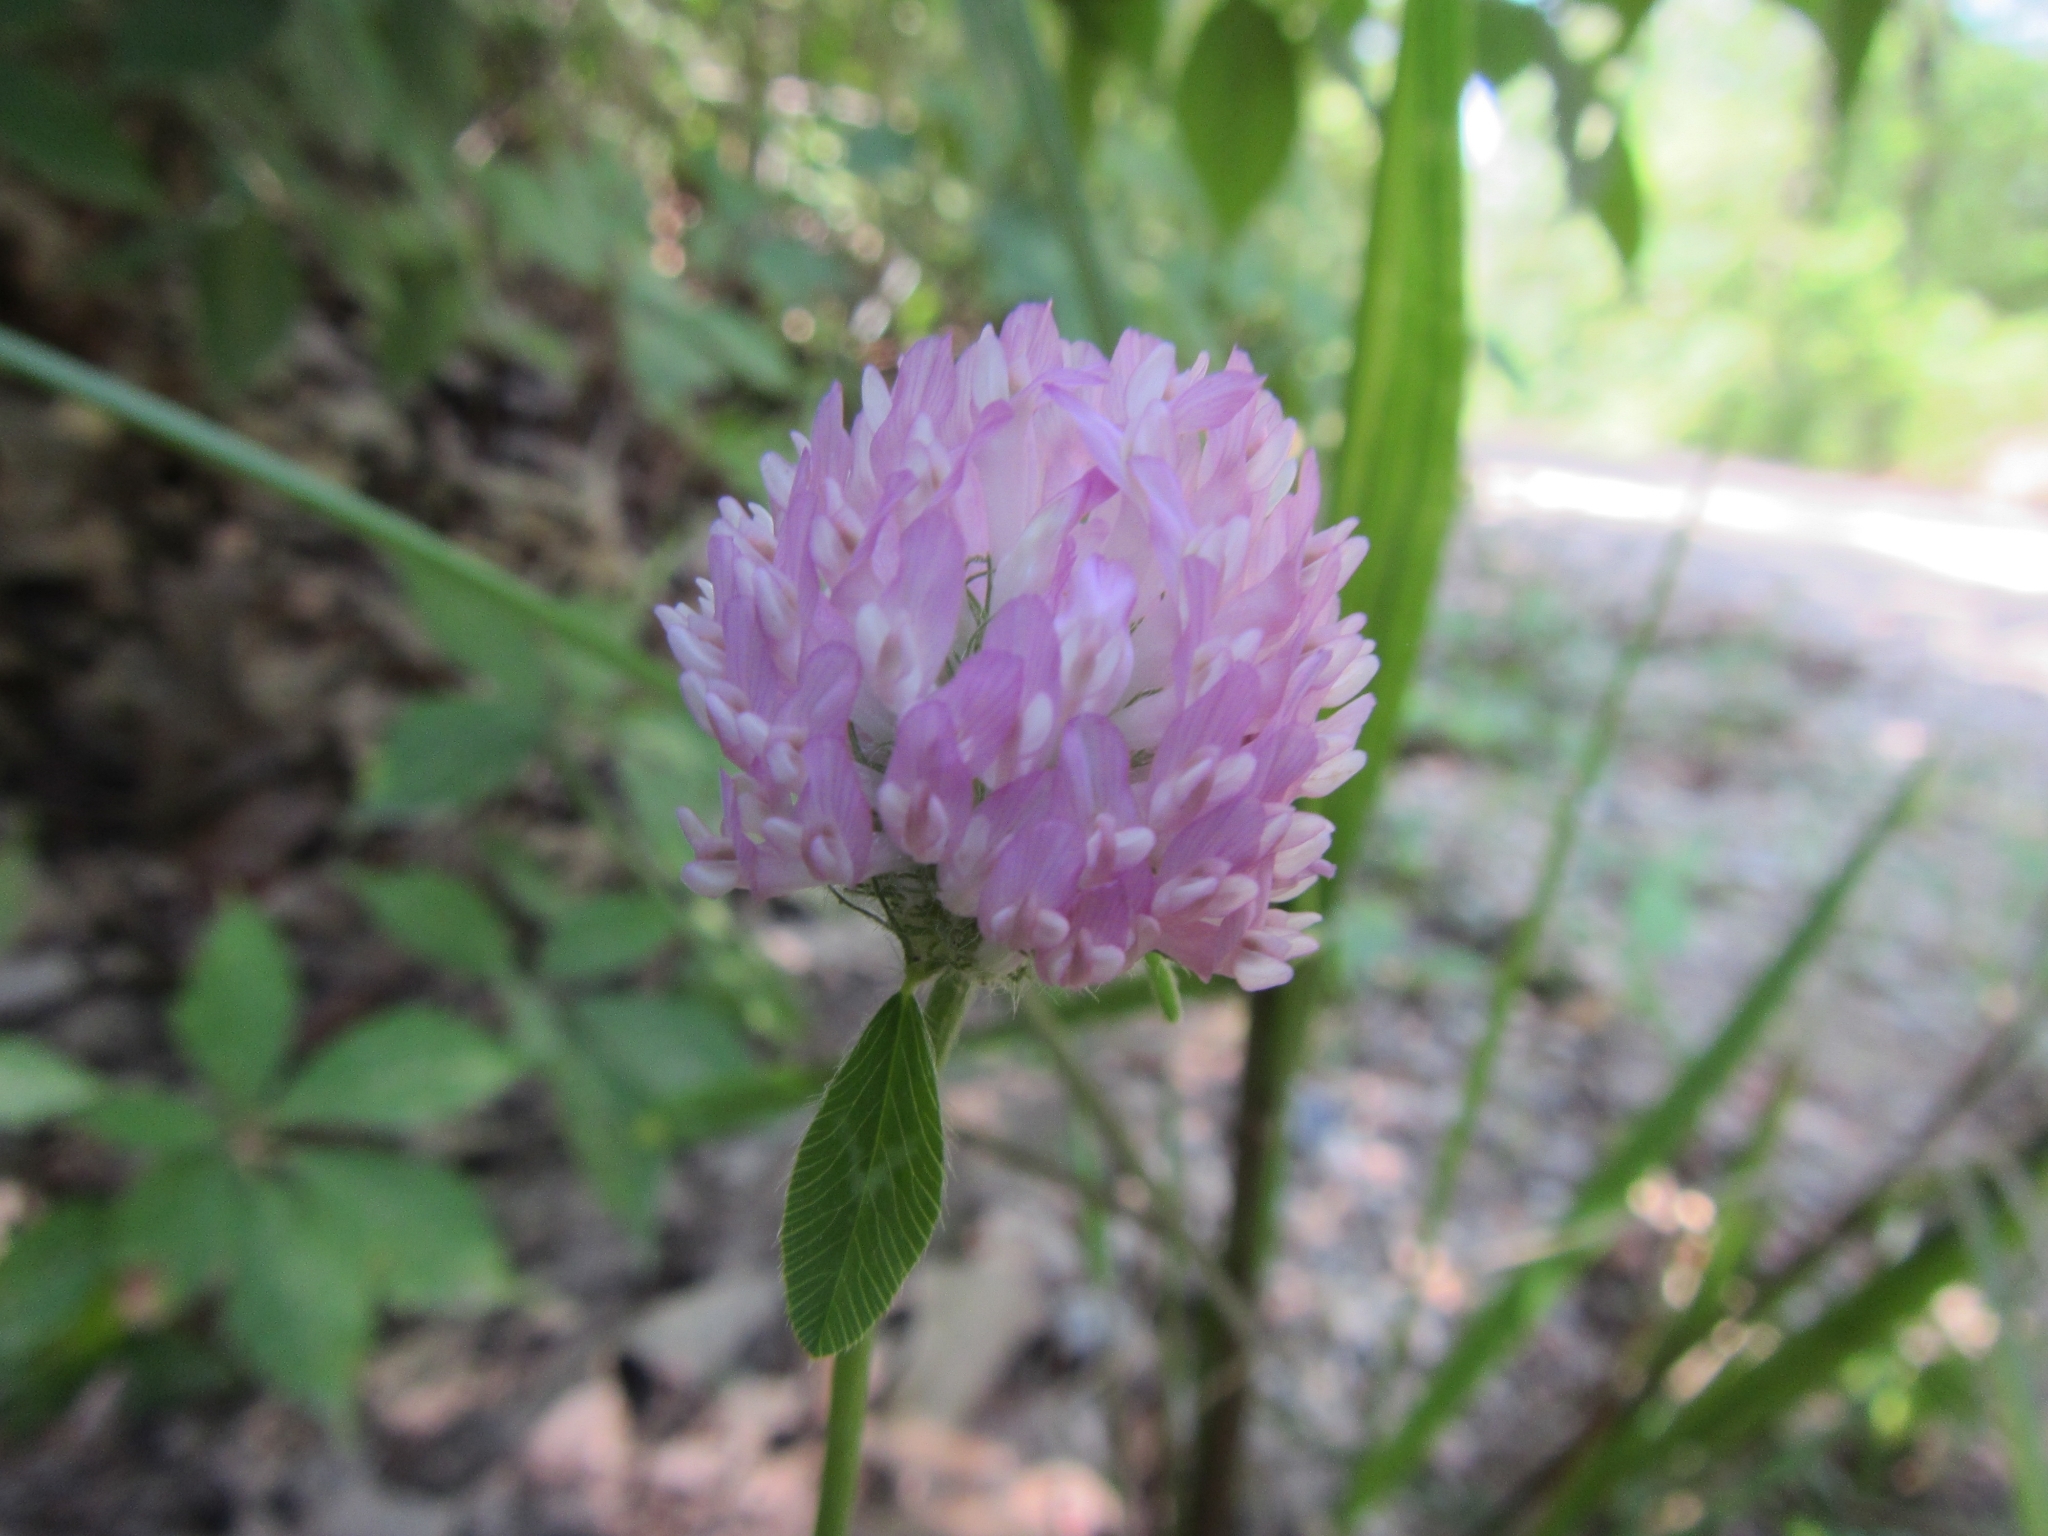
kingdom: Plantae
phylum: Tracheophyta
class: Magnoliopsida
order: Fabales
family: Fabaceae
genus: Trifolium
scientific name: Trifolium pratense
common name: Red clover
